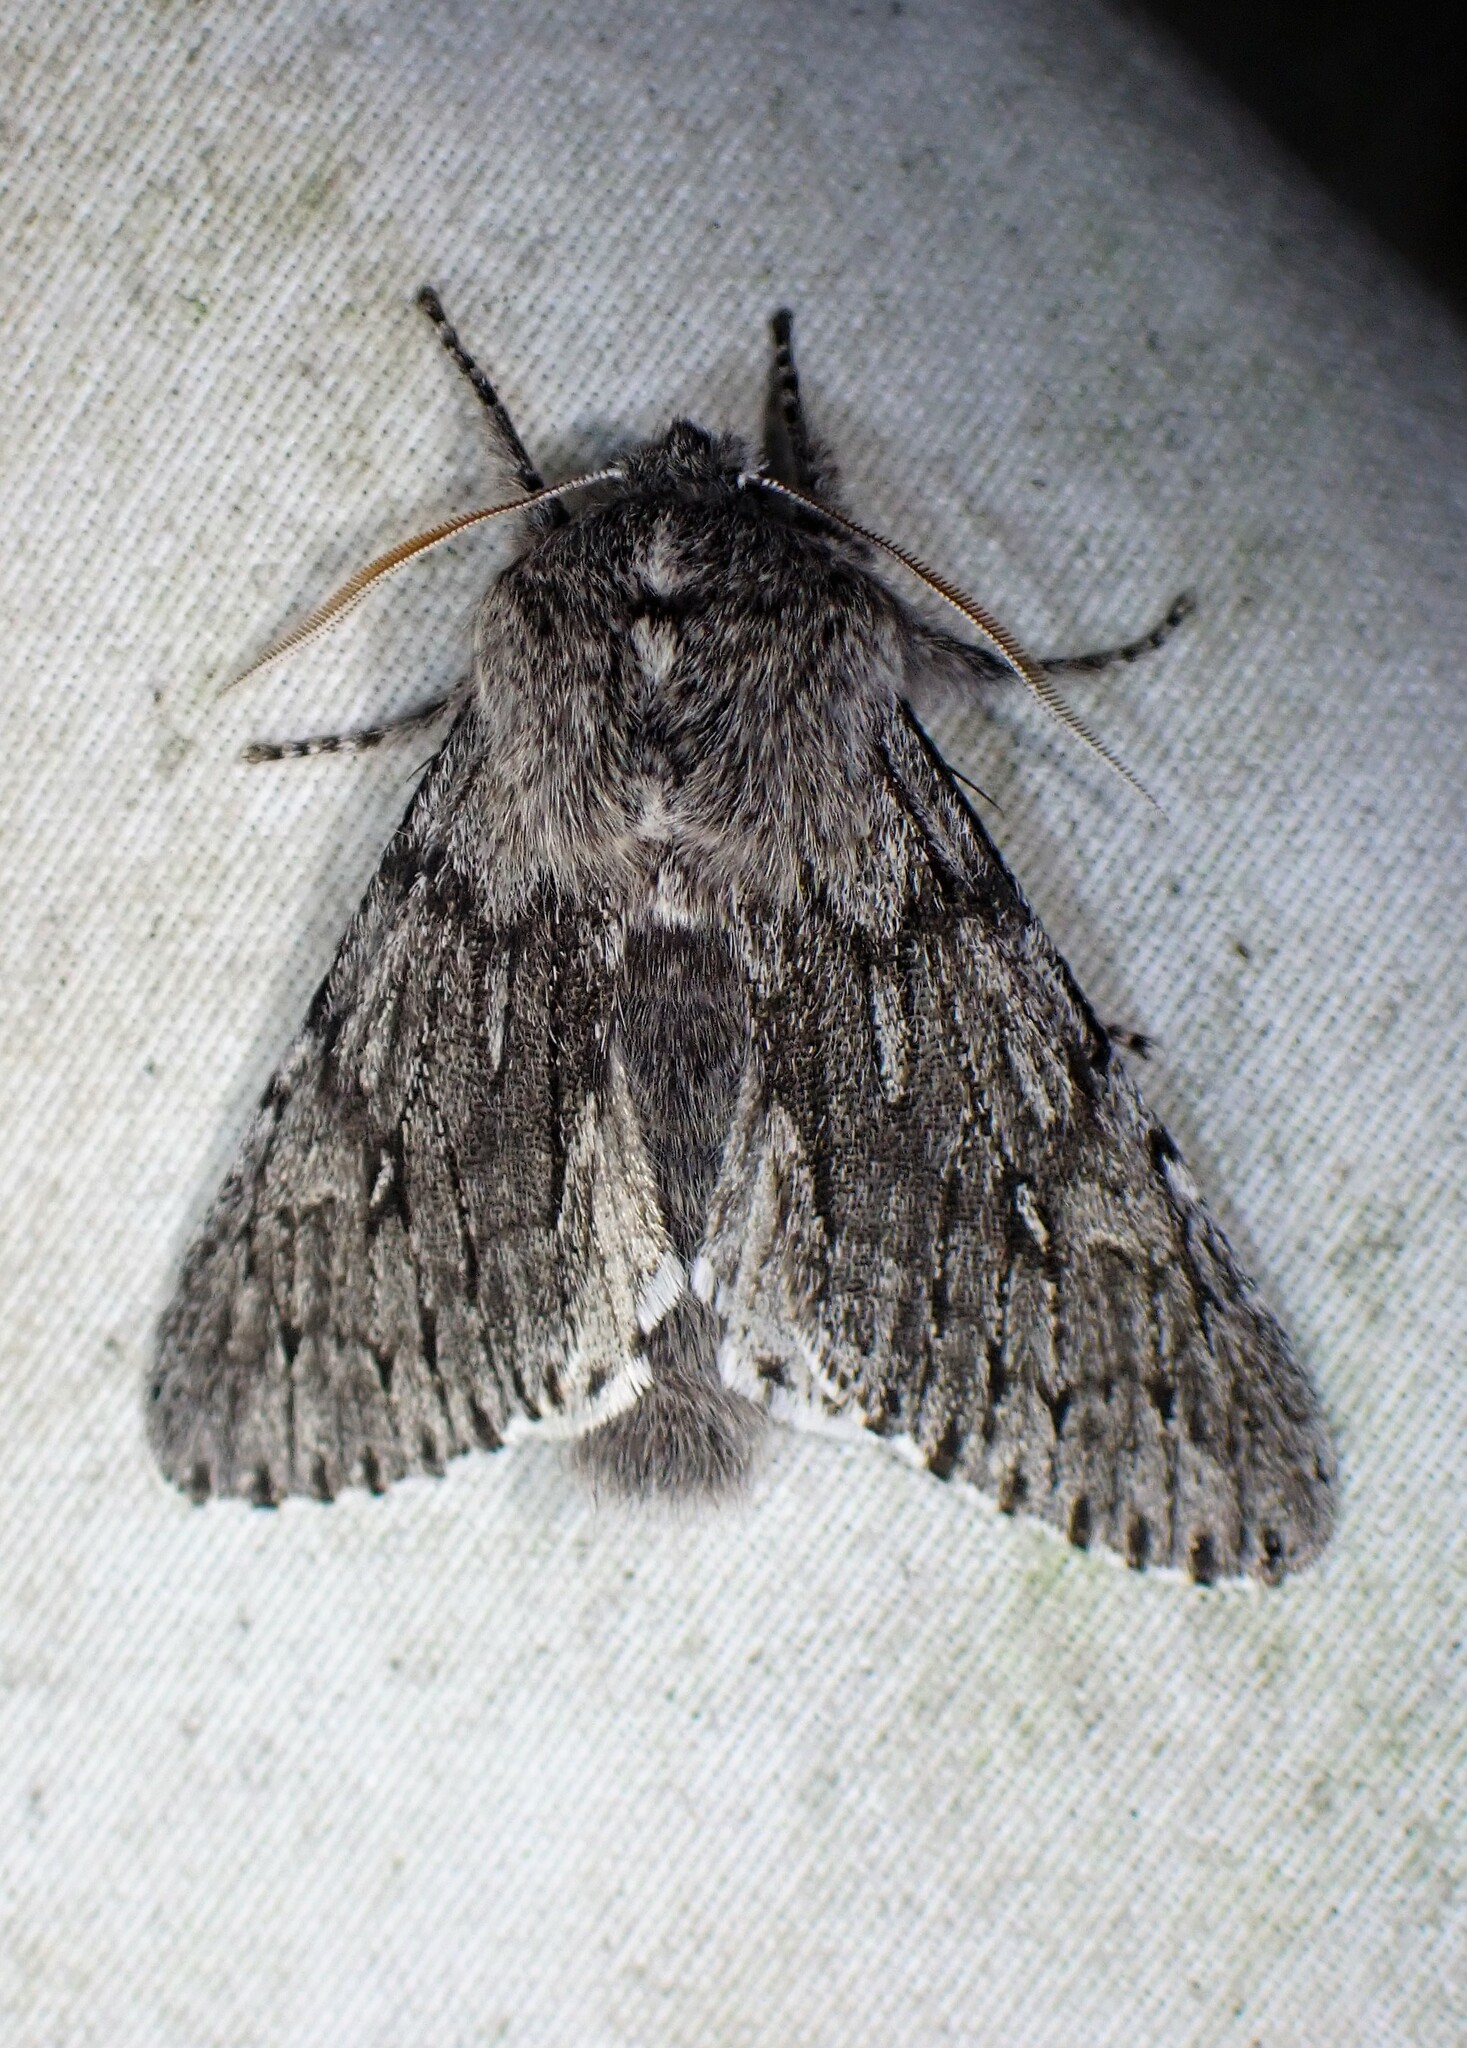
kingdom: Animalia
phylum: Arthropoda
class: Insecta
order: Lepidoptera
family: Noctuidae
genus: Brachionycha
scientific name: Brachionycha borealis
